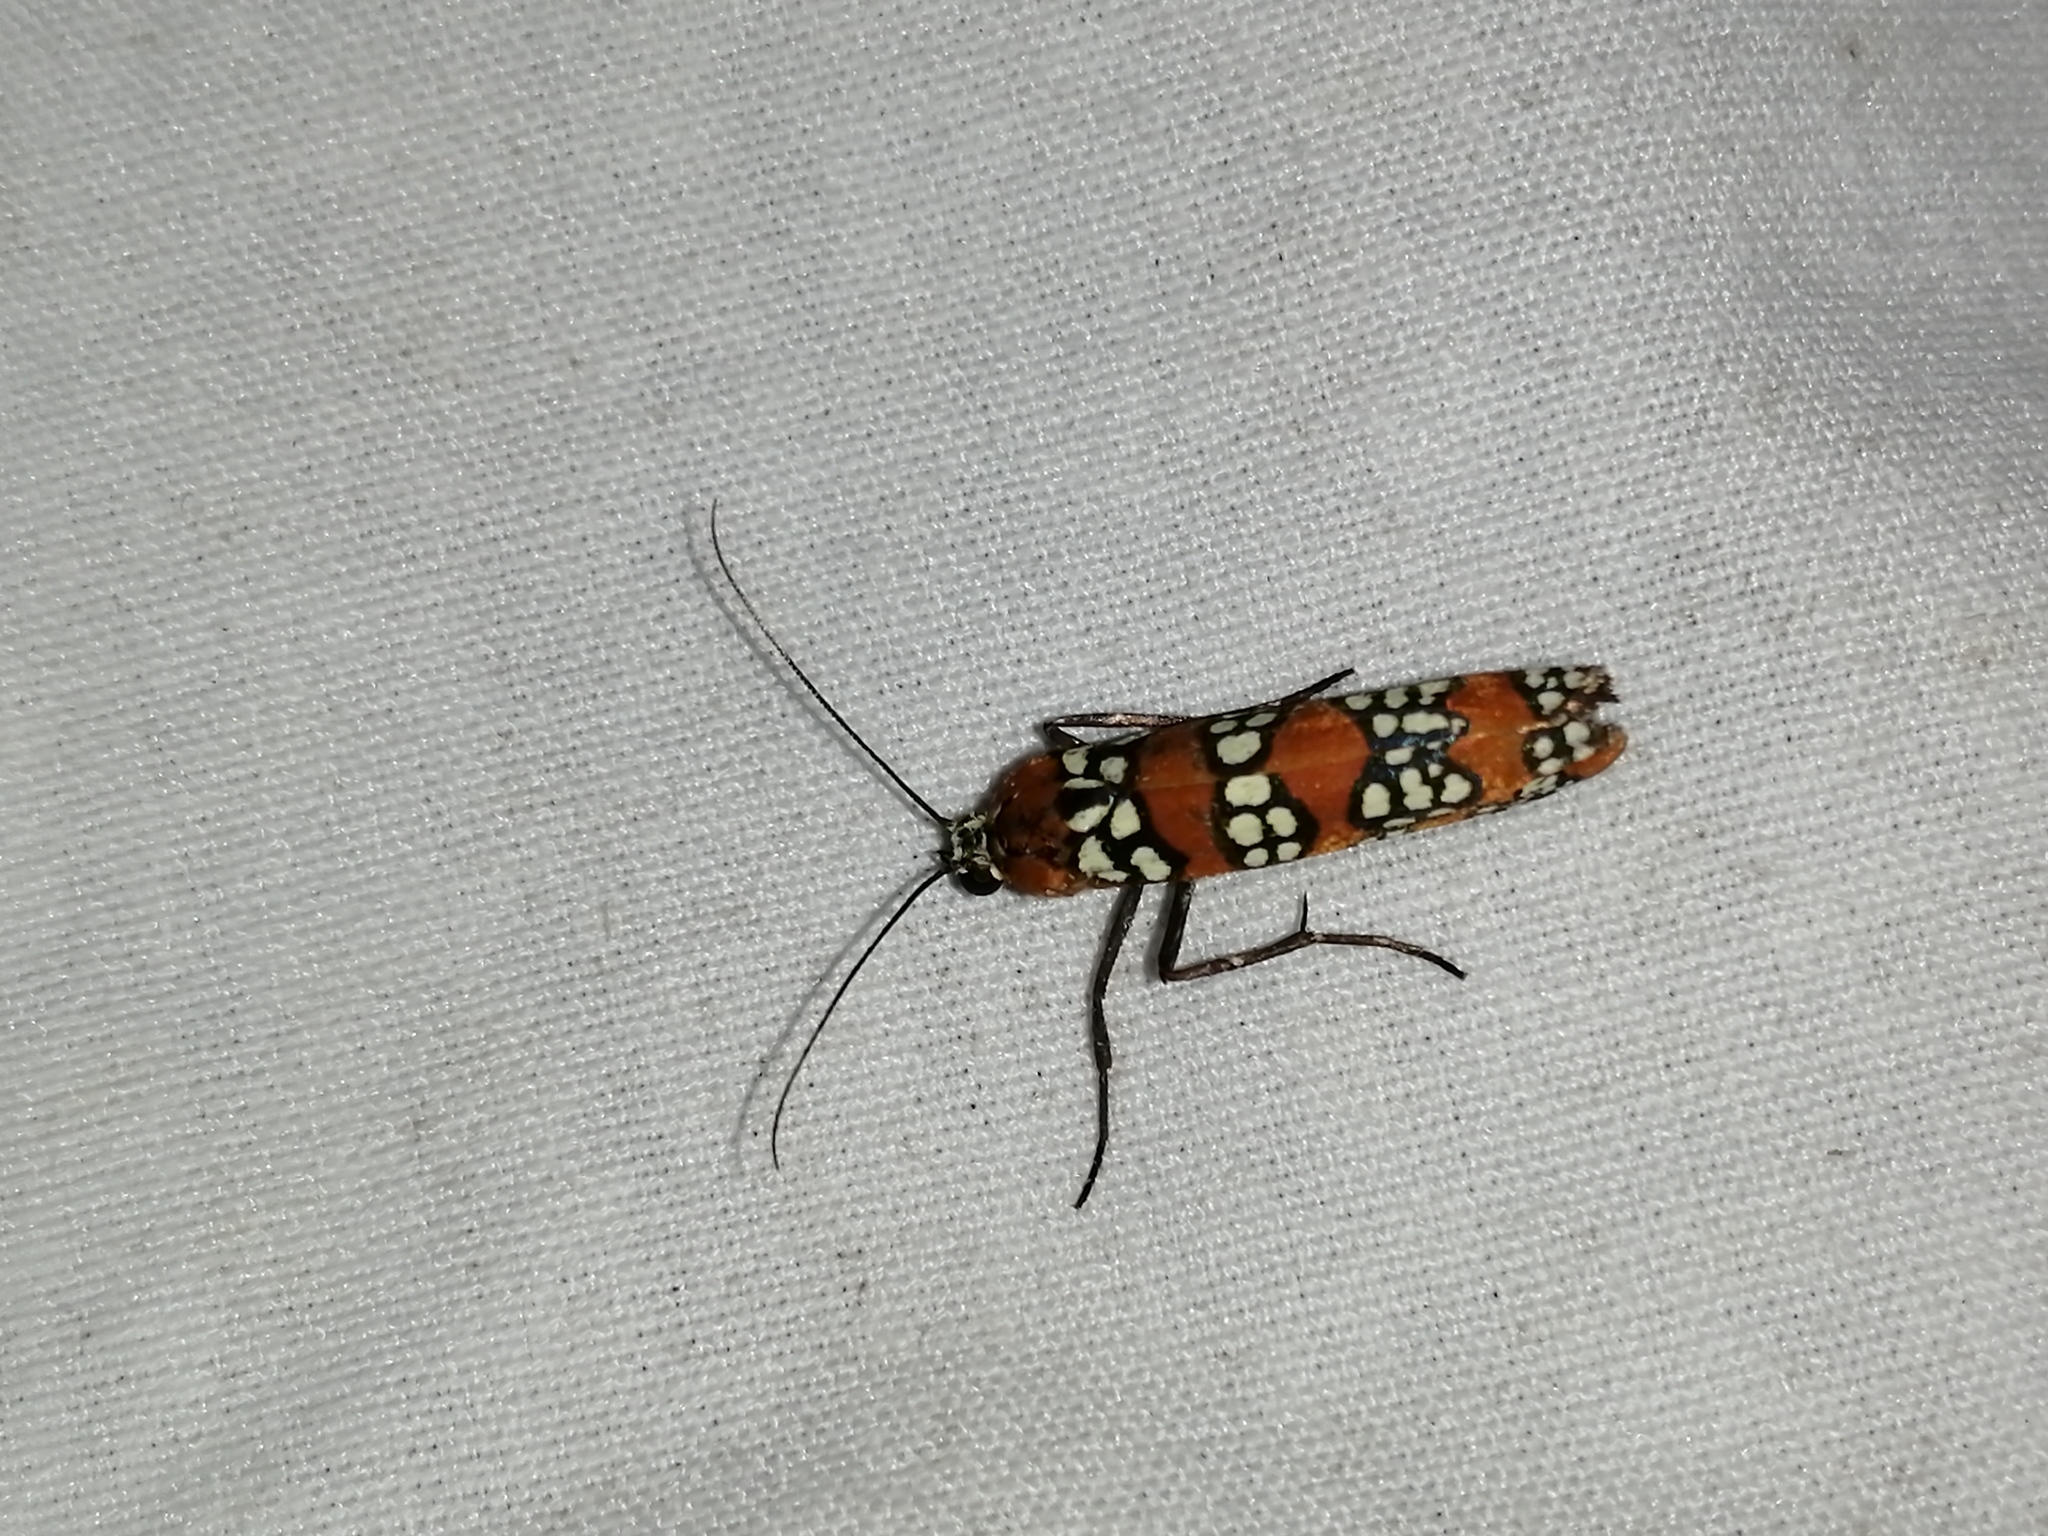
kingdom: Animalia
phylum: Arthropoda
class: Insecta
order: Lepidoptera
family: Attevidae
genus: Atteva
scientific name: Atteva punctella
